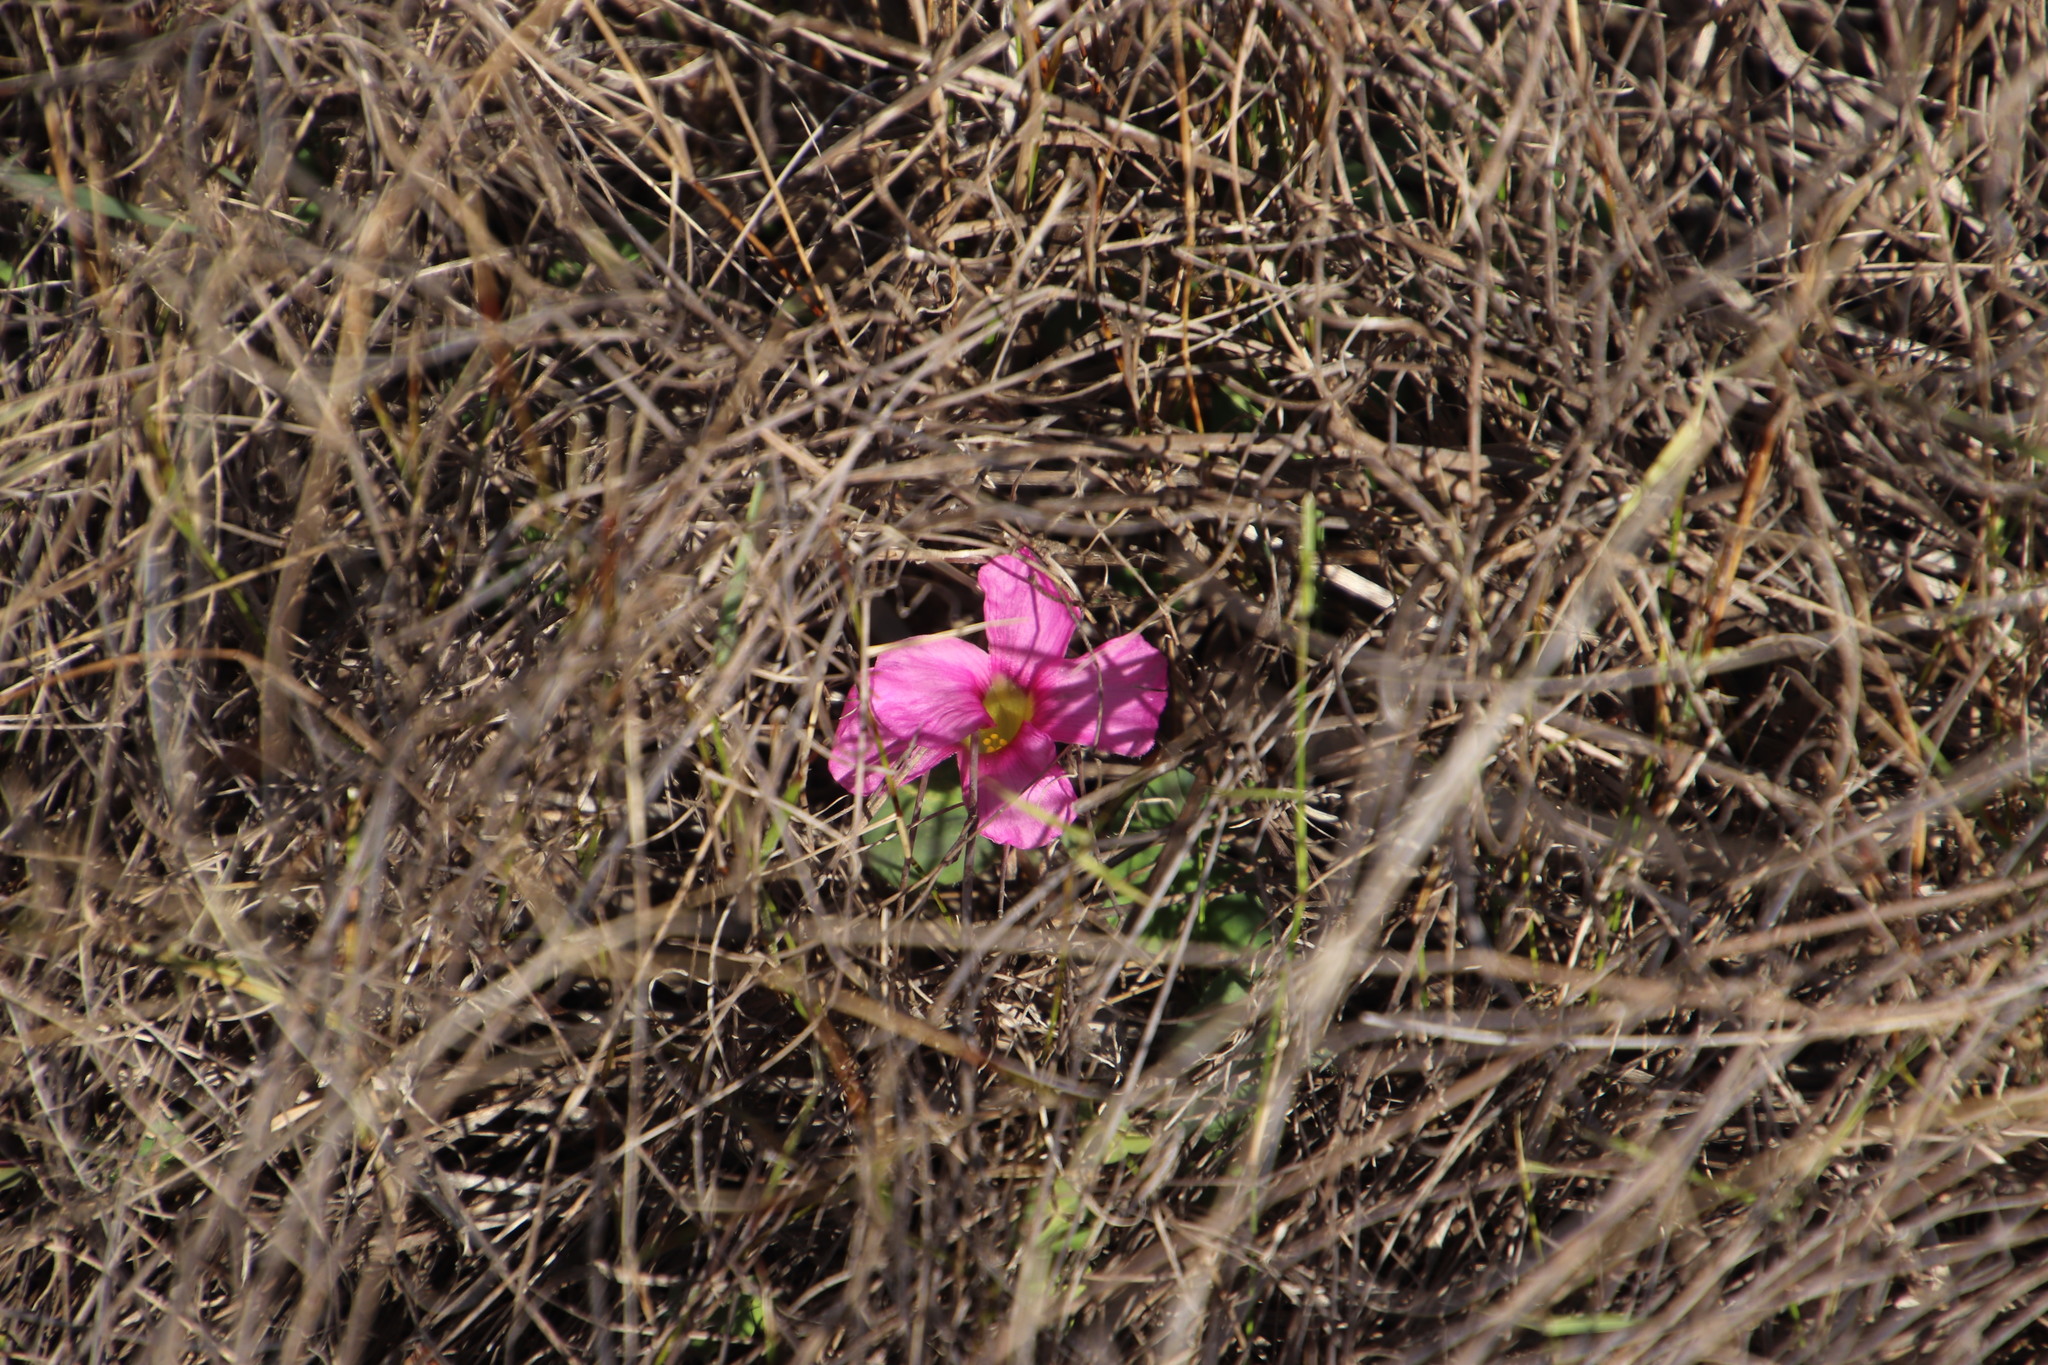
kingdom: Plantae
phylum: Tracheophyta
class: Magnoliopsida
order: Oxalidales
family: Oxalidaceae
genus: Oxalis
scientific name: Oxalis purpurea
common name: Purple woodsorrel
